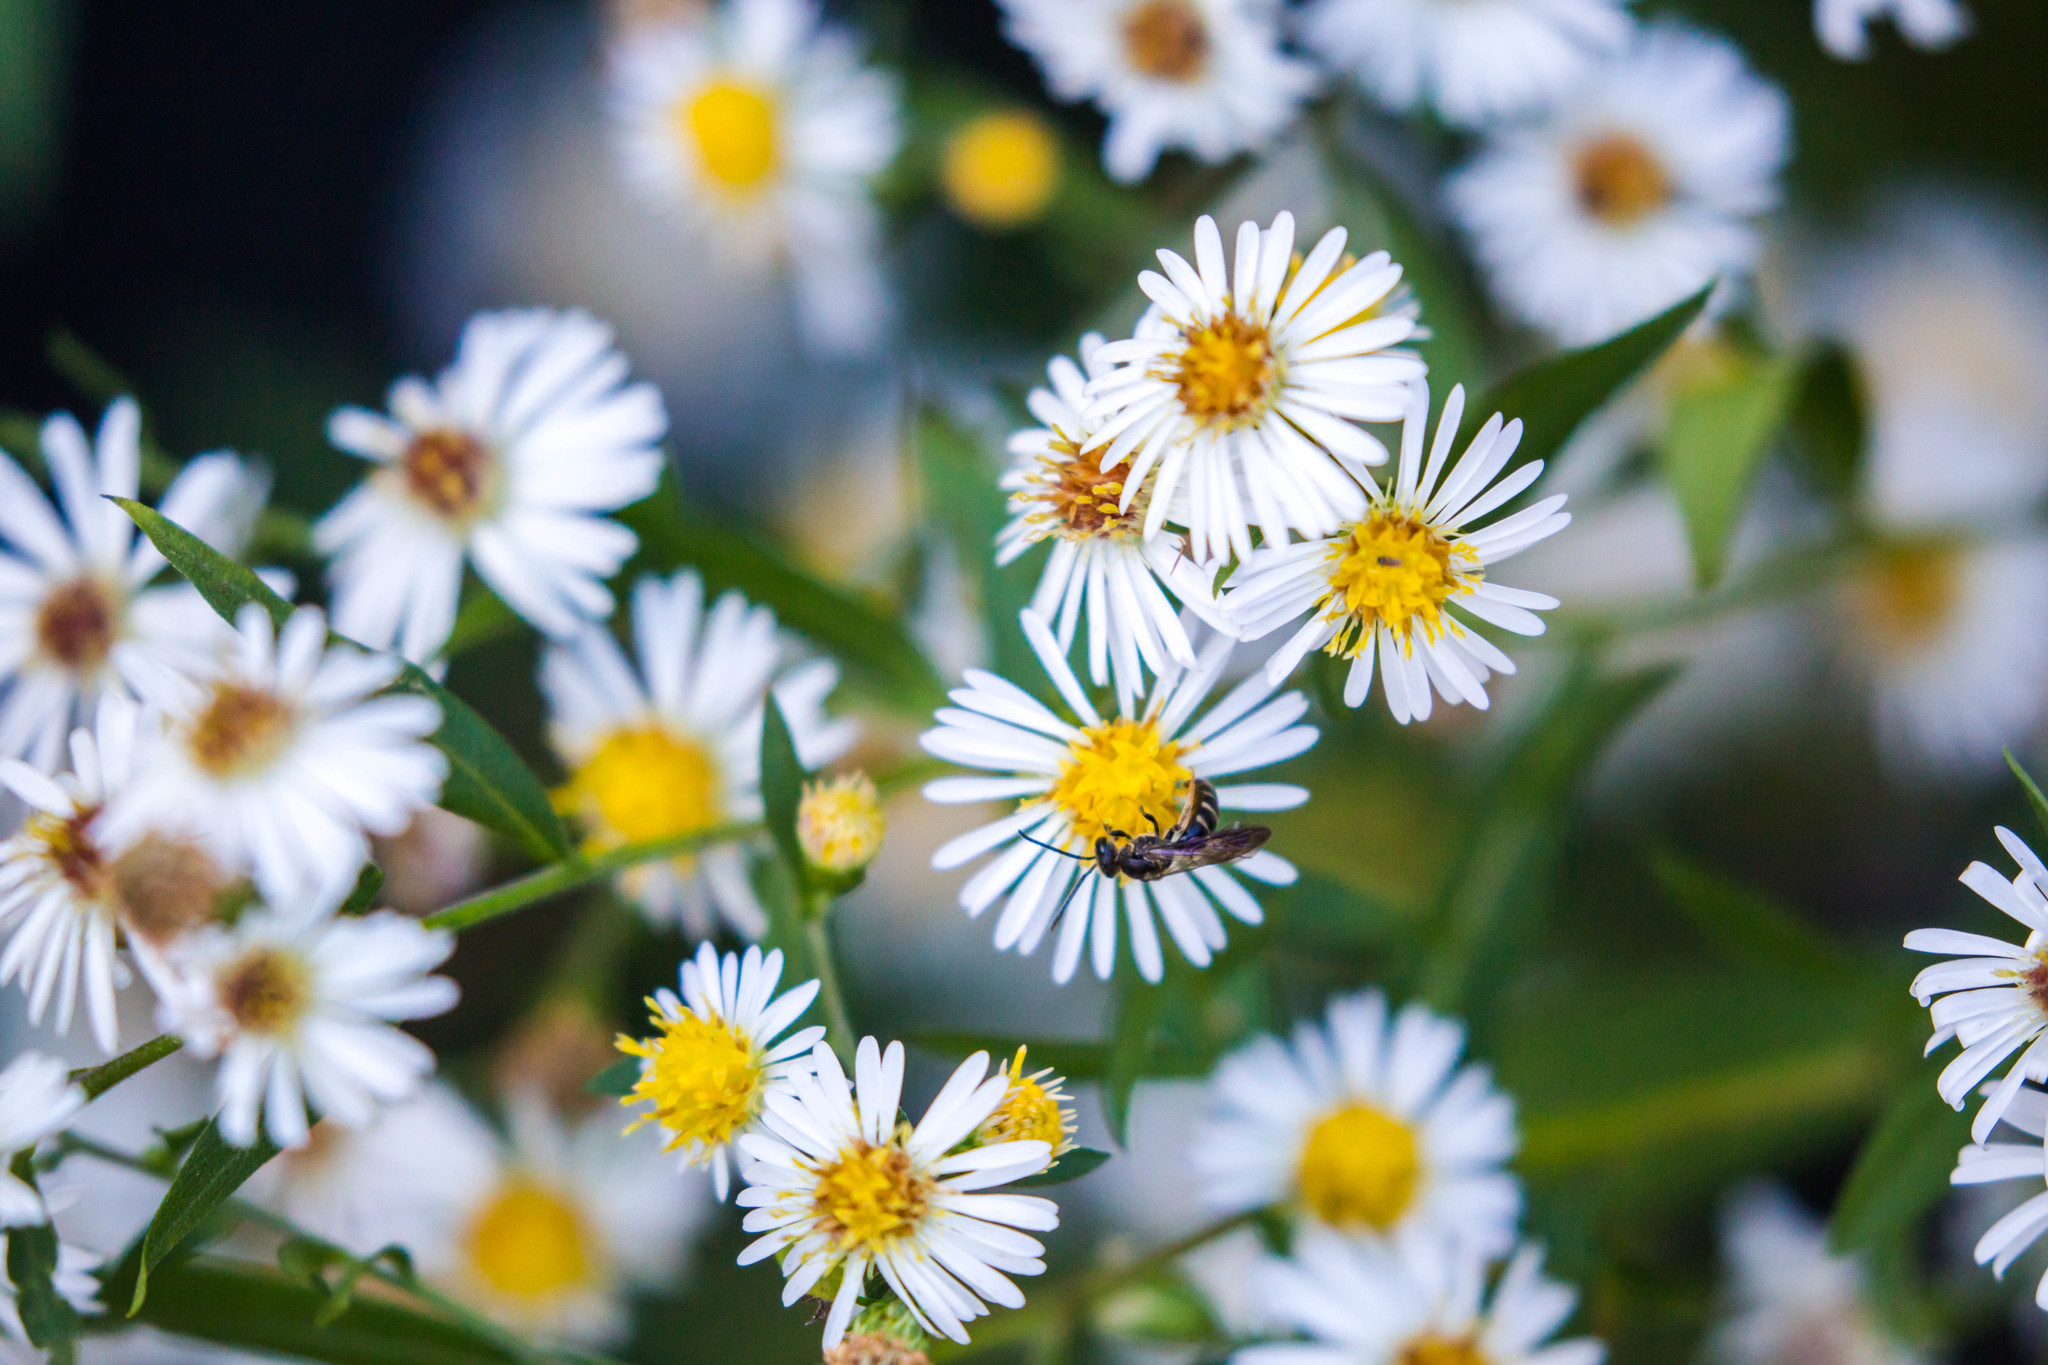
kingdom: Animalia
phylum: Arthropoda
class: Insecta
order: Hymenoptera
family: Halictidae
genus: Lasioglossum
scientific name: Lasioglossum fuscipenne
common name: Brown-winged sweat bee
